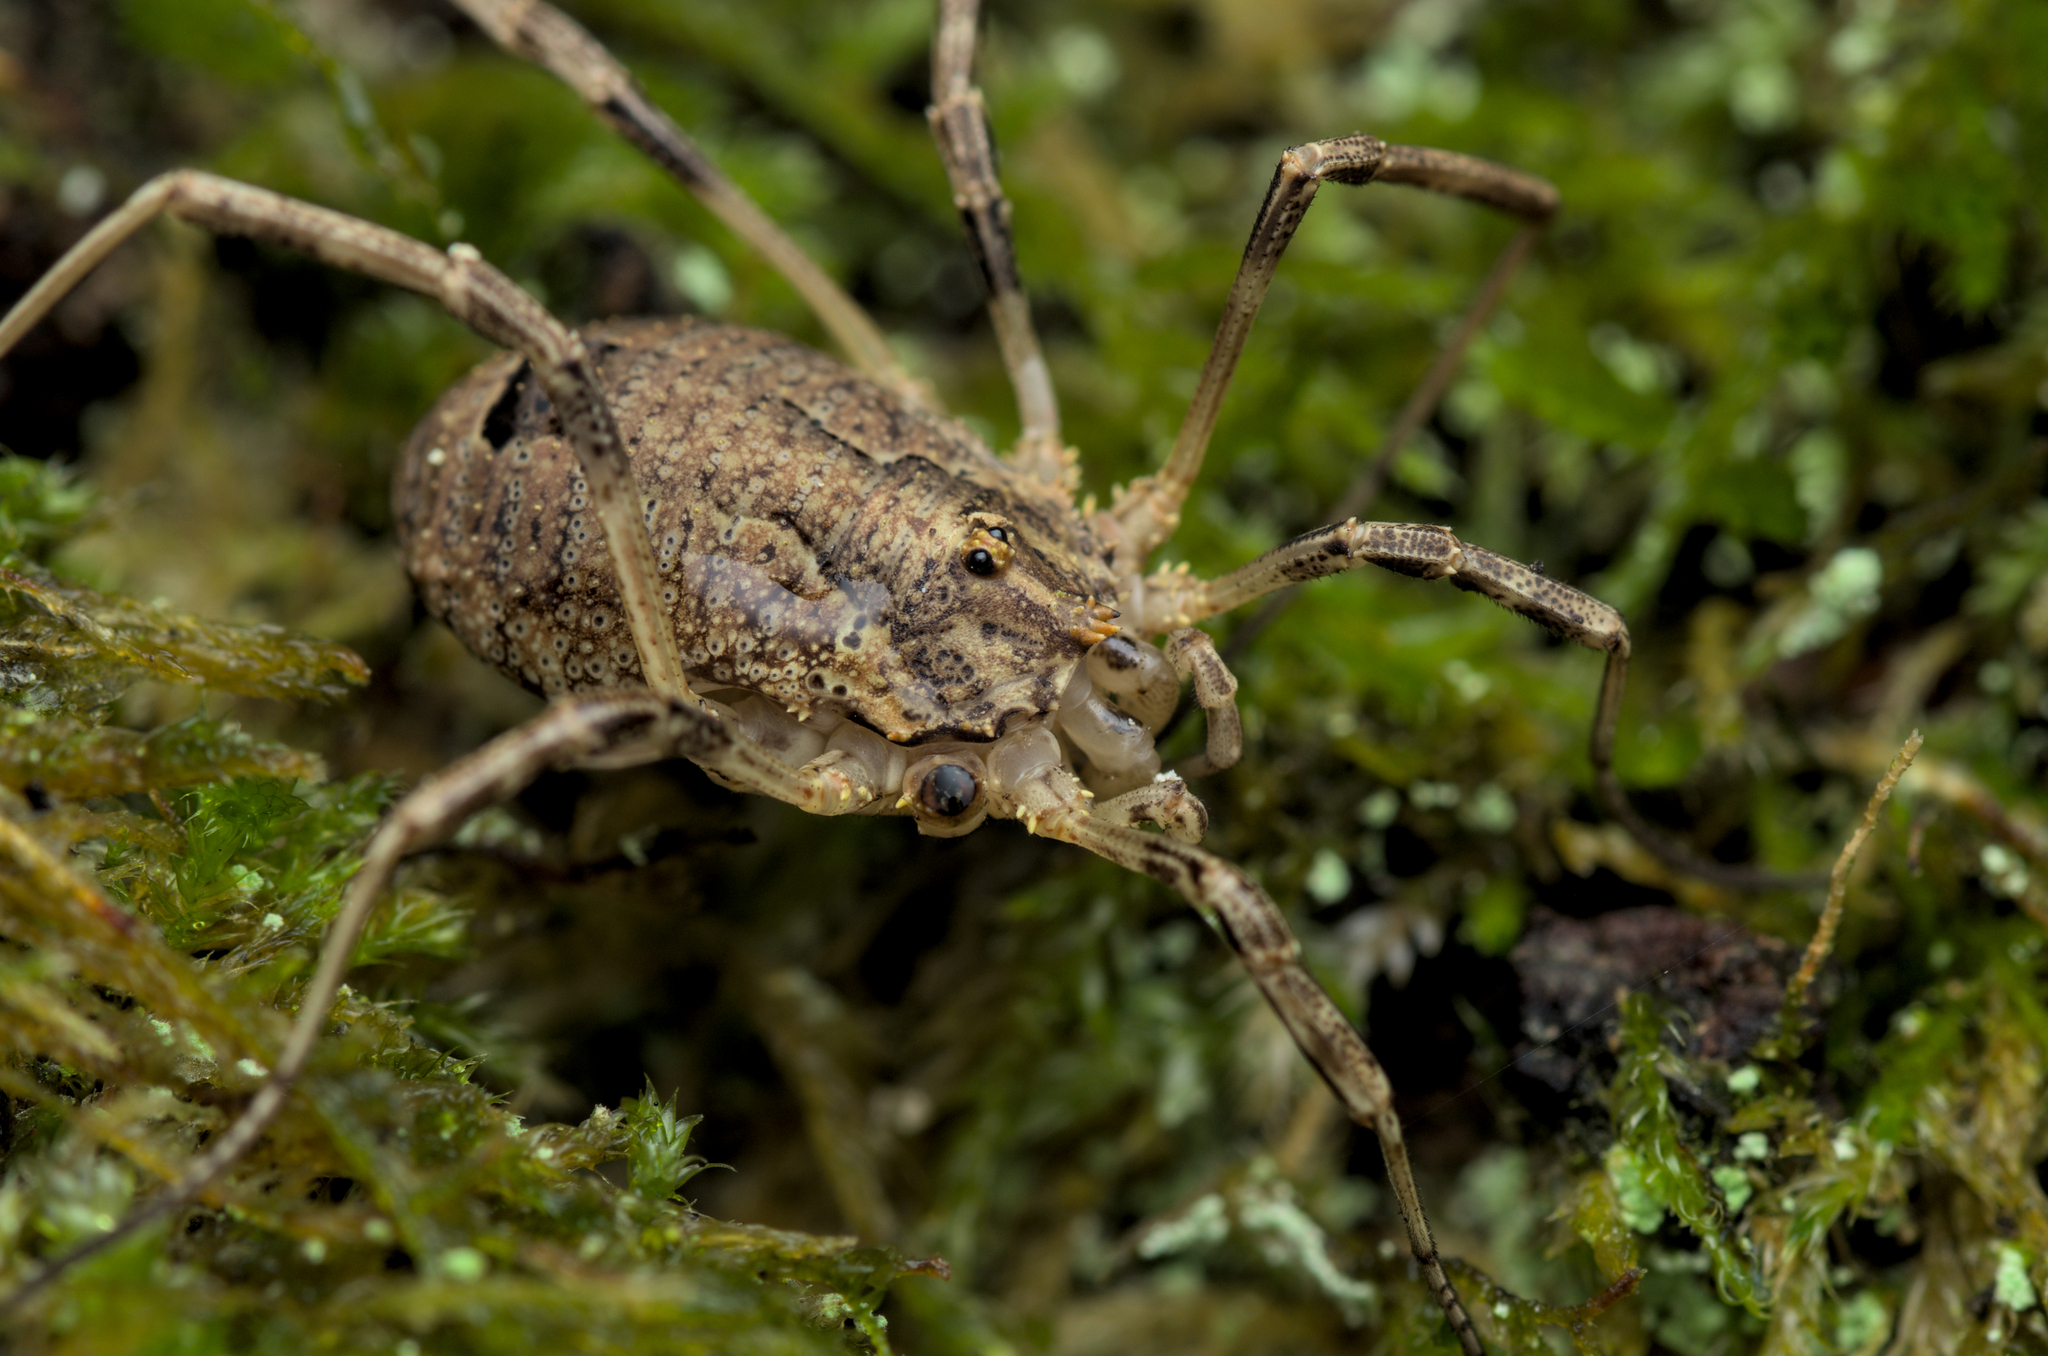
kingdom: Animalia
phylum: Arthropoda
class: Arachnida
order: Opiliones
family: Phalangiidae
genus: Odiellus
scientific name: Odiellus spinosus
